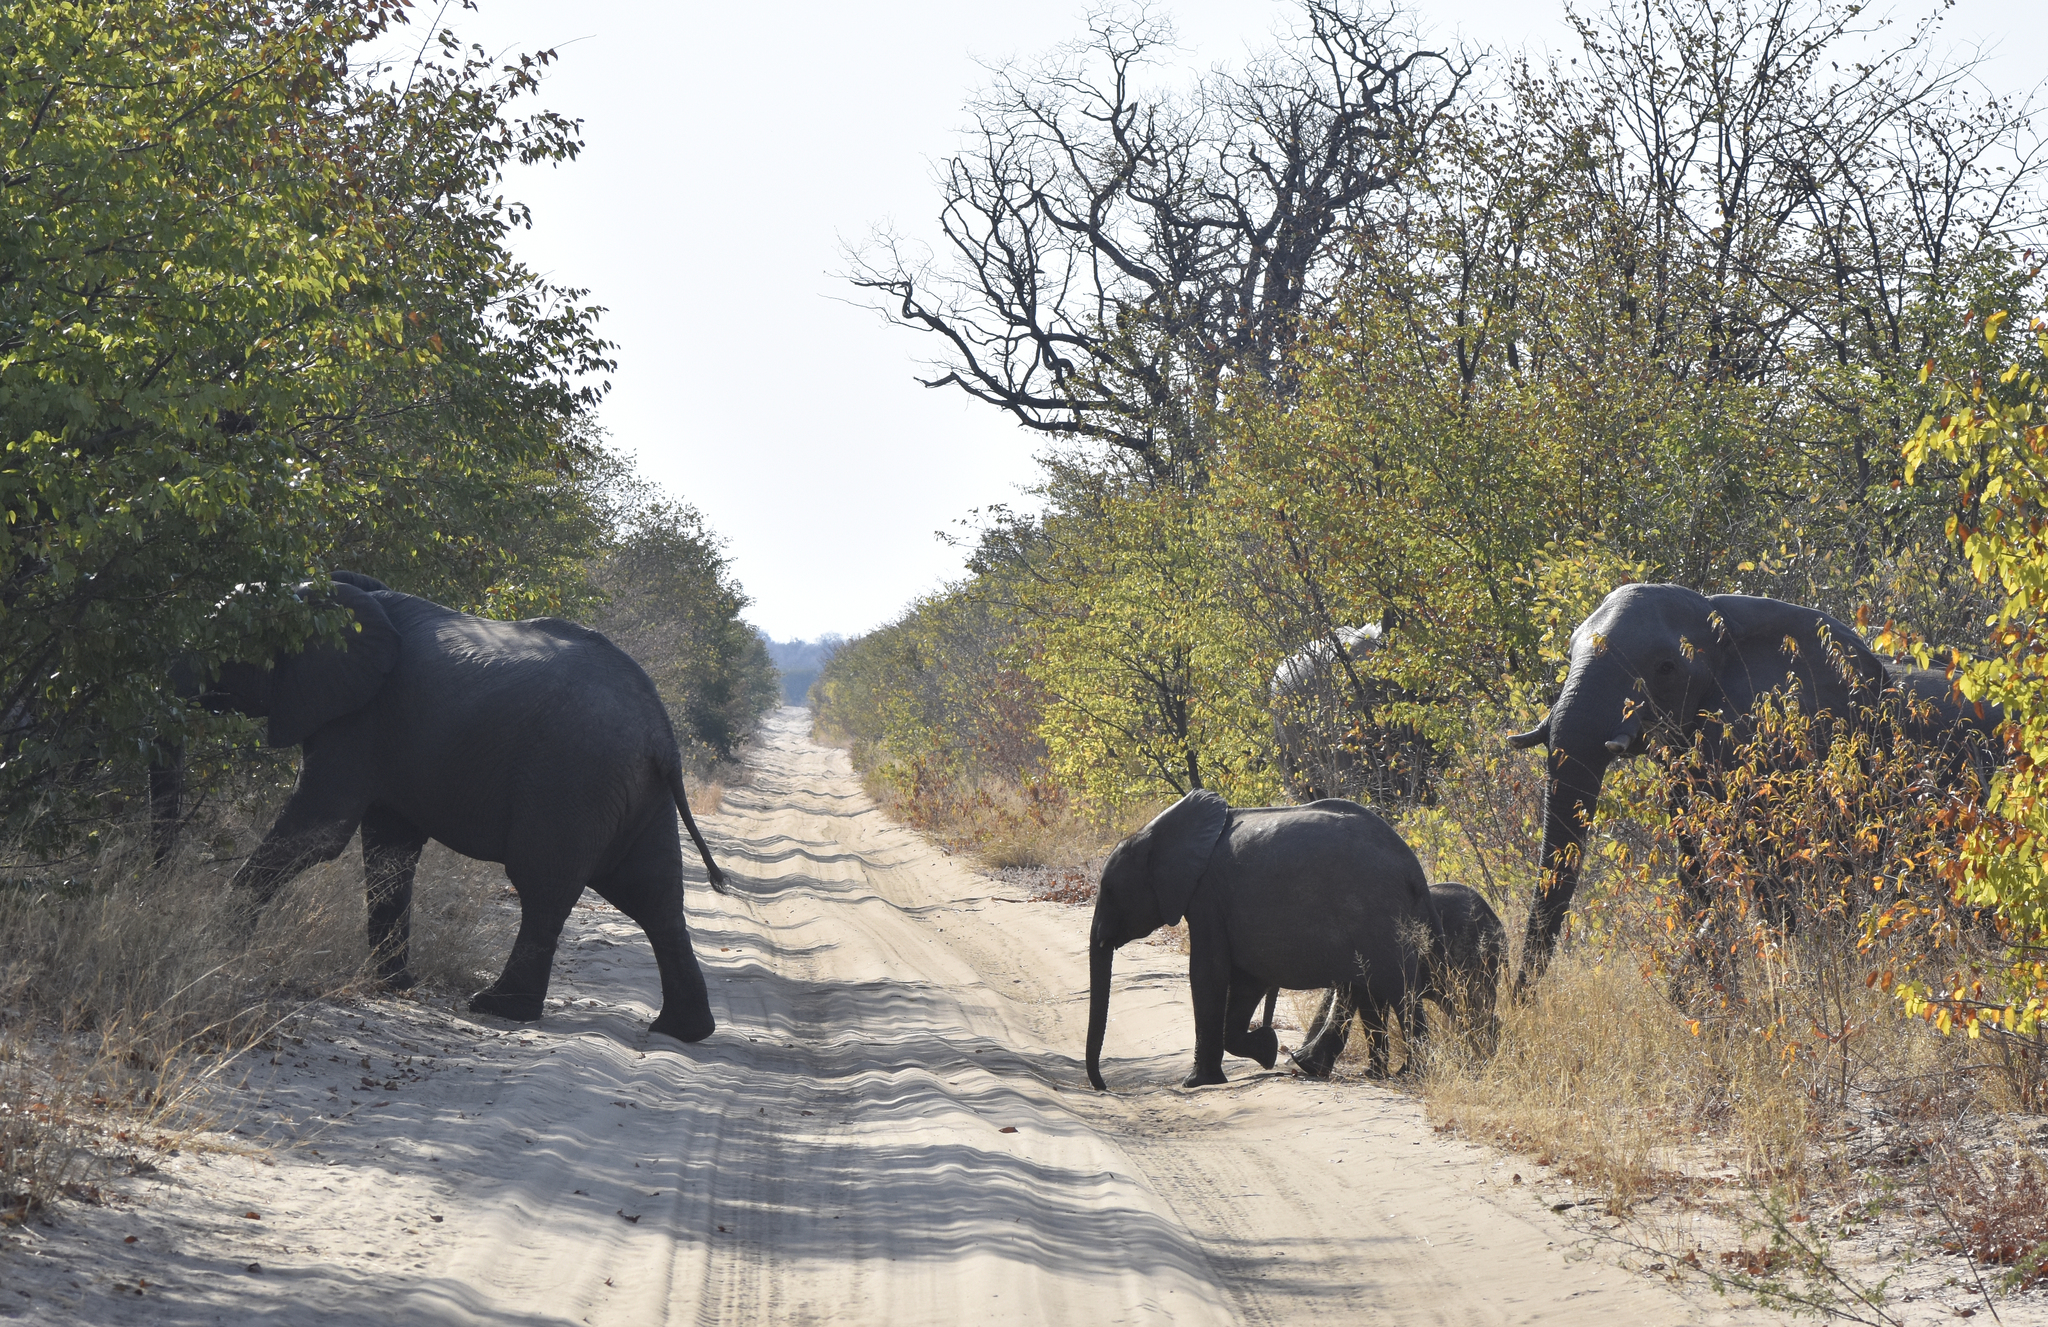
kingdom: Animalia
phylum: Chordata
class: Mammalia
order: Proboscidea
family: Elephantidae
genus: Loxodonta
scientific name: Loxodonta africana
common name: African elephant
